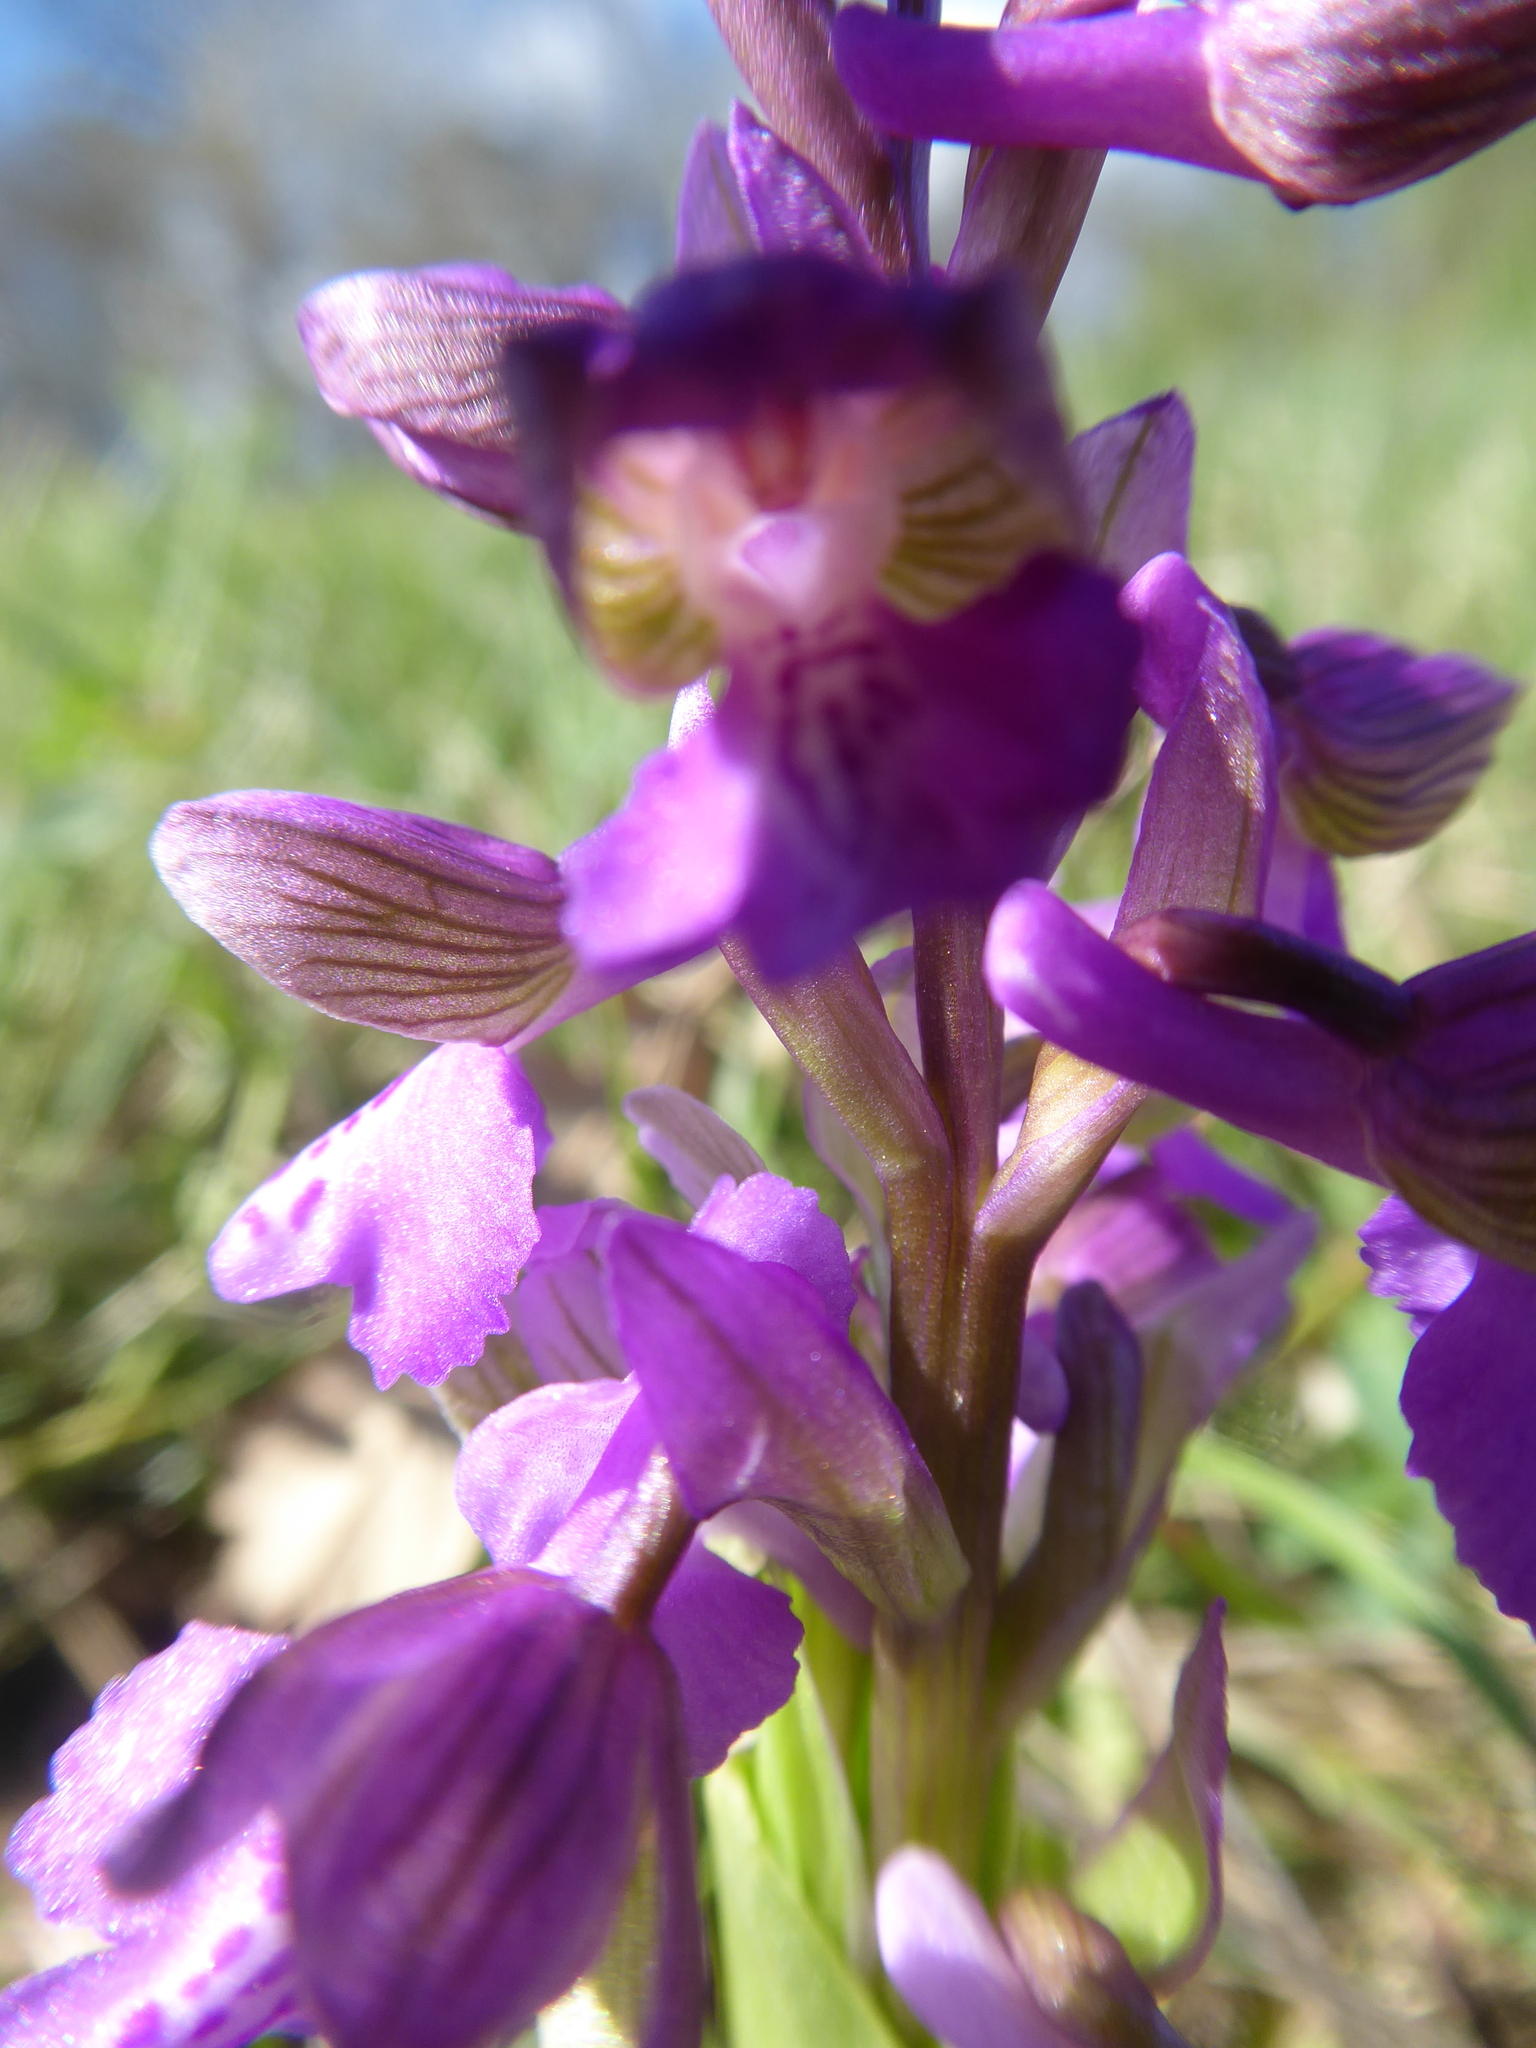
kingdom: Plantae
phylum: Tracheophyta
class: Liliopsida
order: Asparagales
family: Orchidaceae
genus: Anacamptis
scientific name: Anacamptis morio
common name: Green-winged orchid
